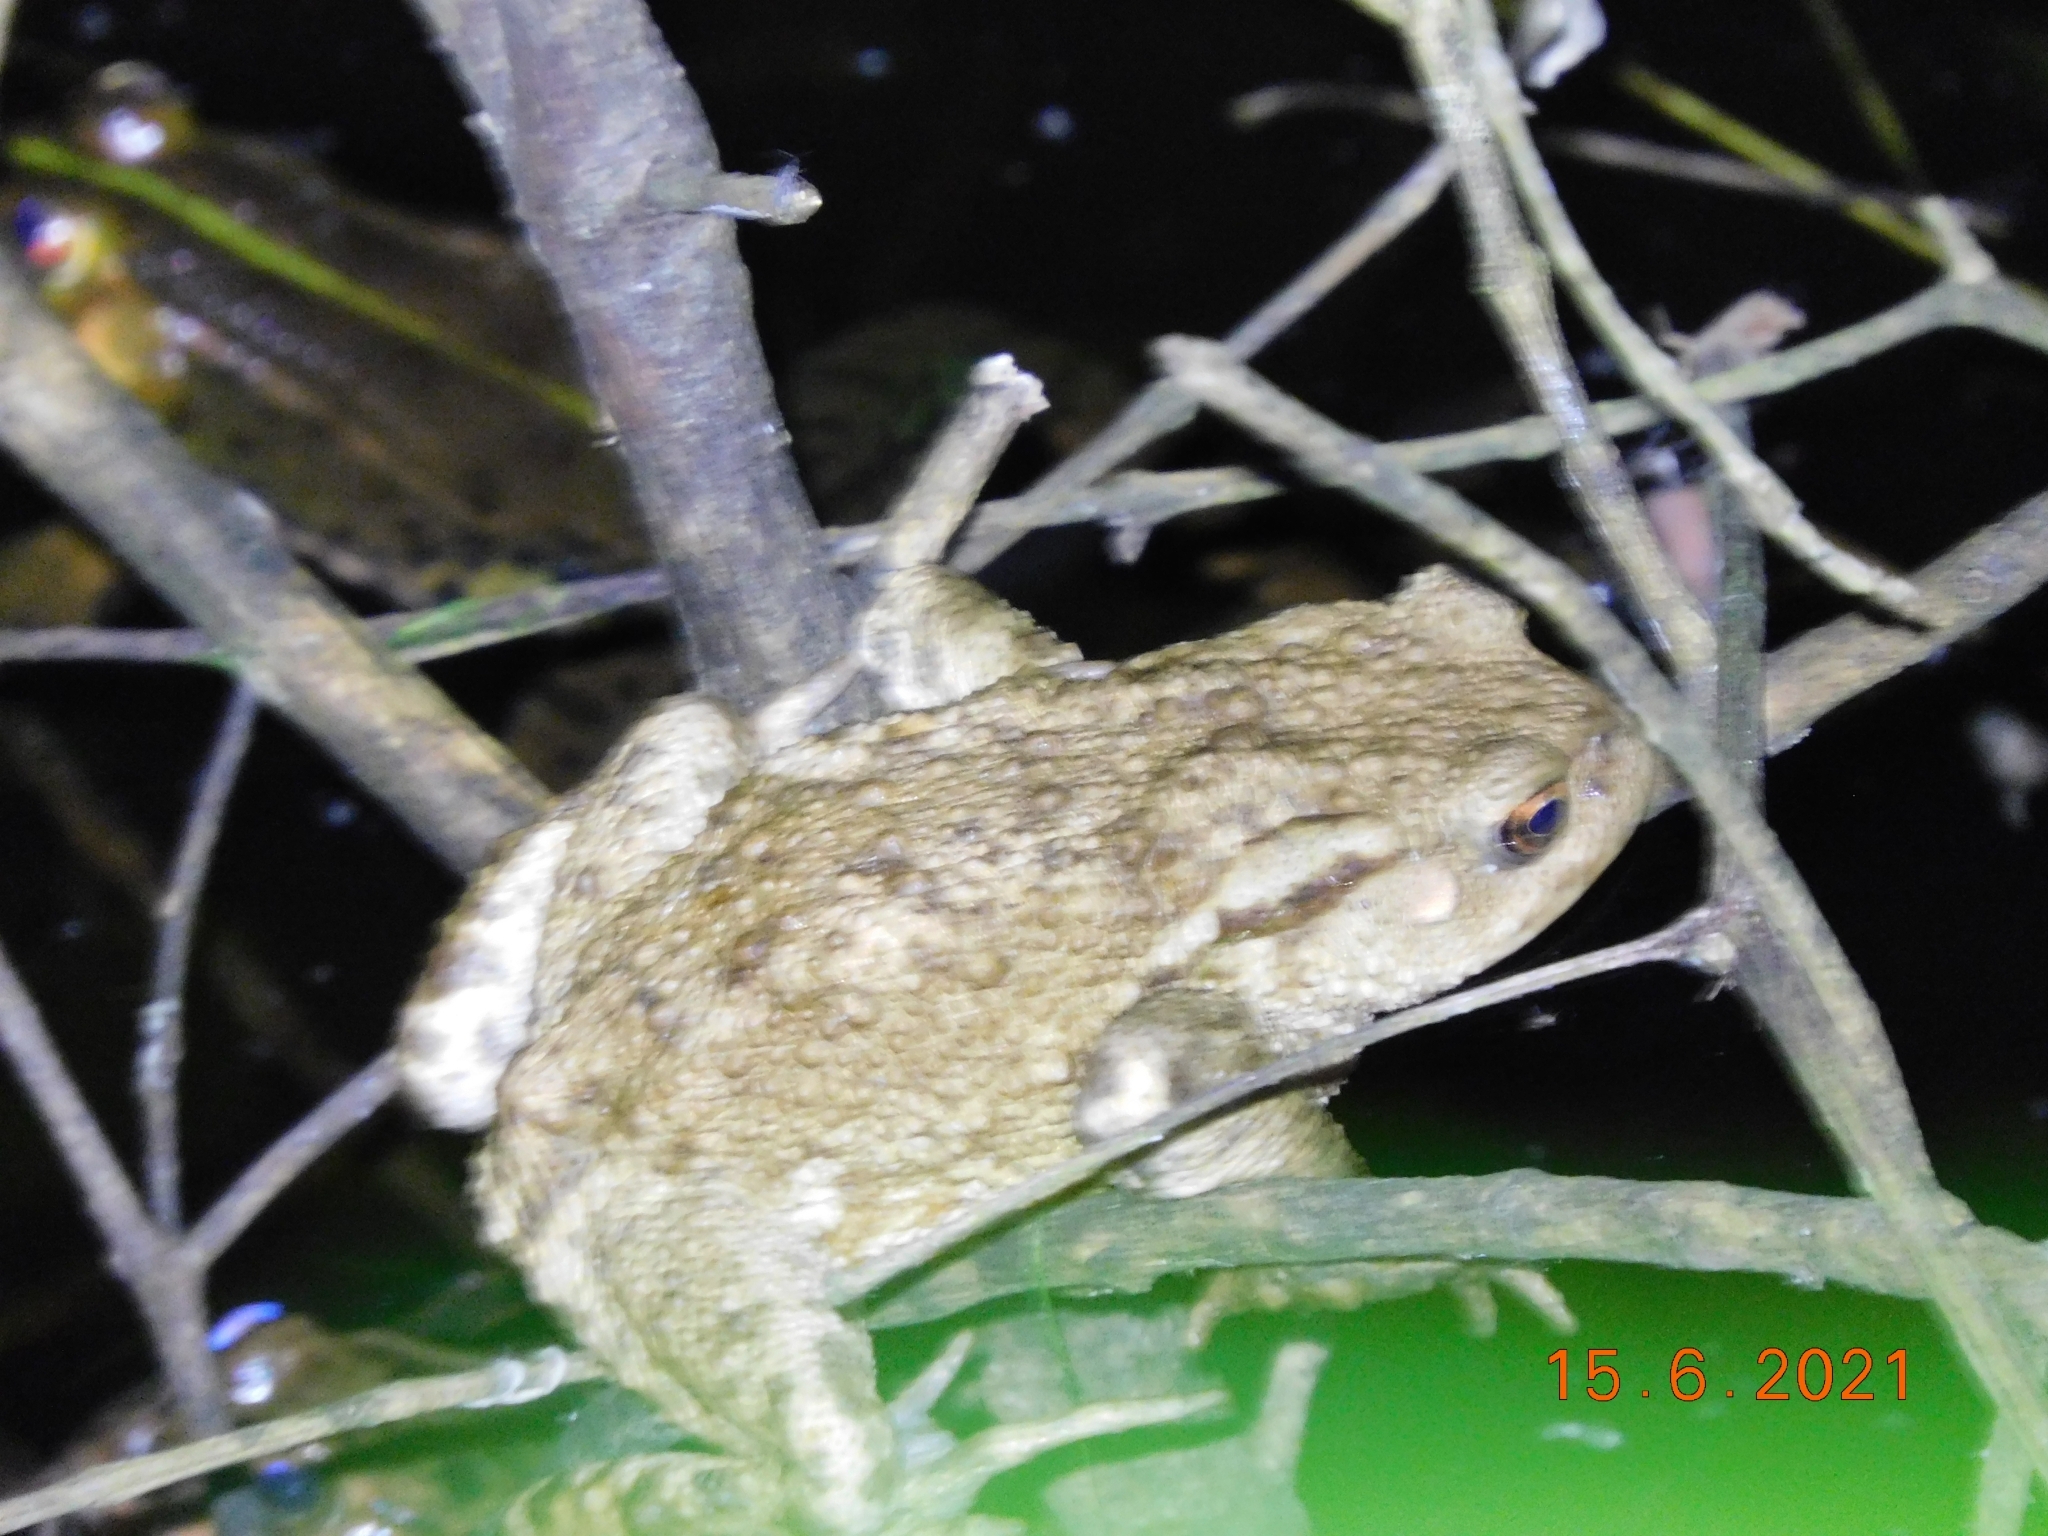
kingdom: Animalia
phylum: Chordata
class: Amphibia
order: Anura
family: Bufonidae
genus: Bufo
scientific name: Bufo bufo
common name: Common toad
